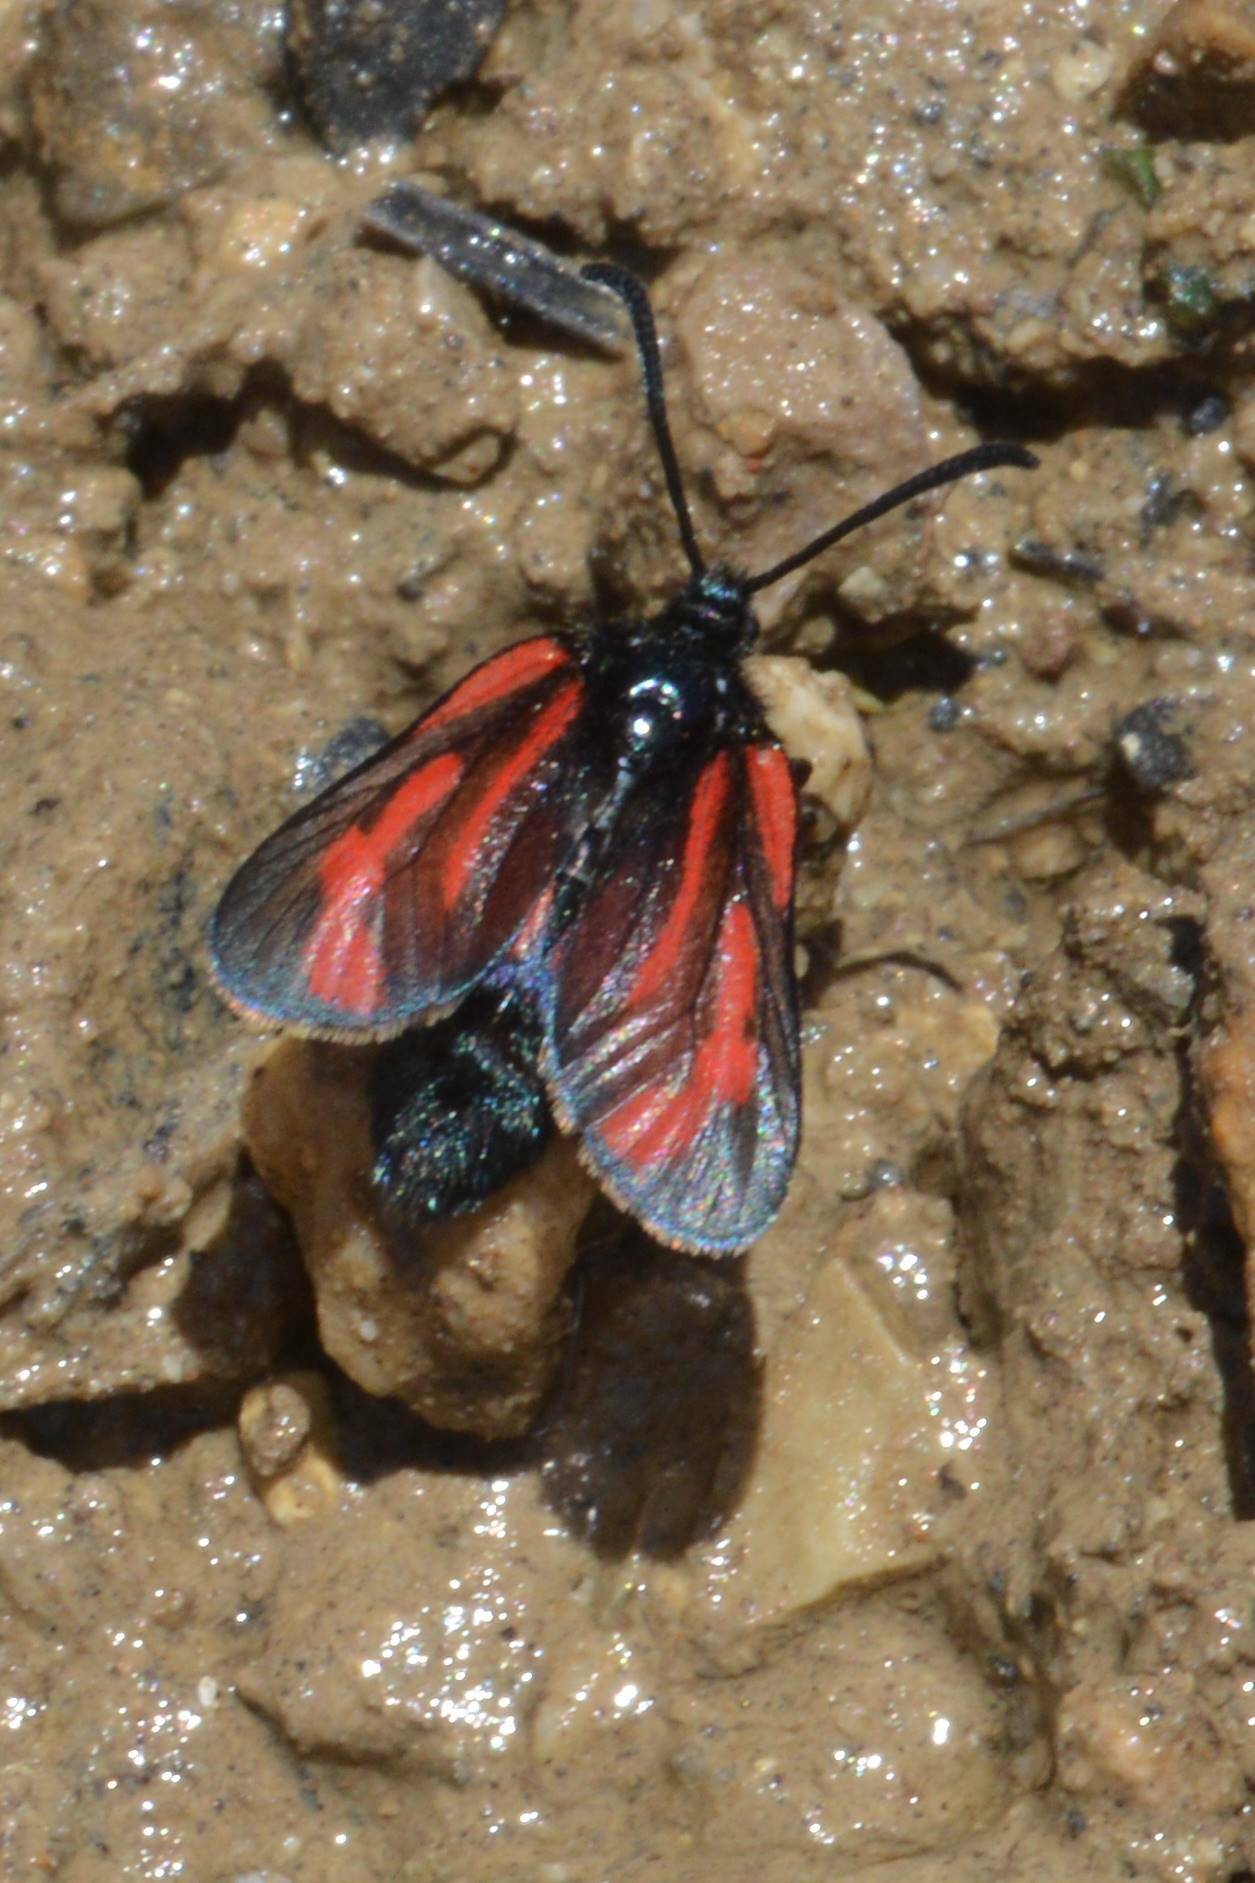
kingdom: Animalia
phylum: Arthropoda
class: Insecta
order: Lepidoptera
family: Zygaenidae
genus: Zygaena
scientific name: Zygaena zuleima
